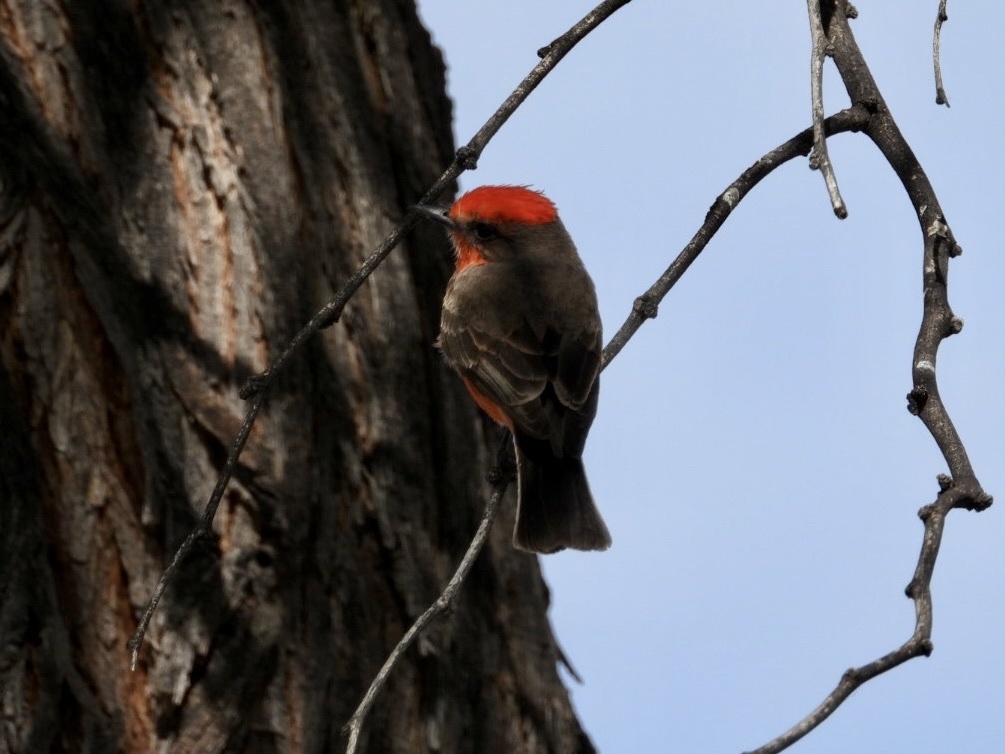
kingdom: Animalia
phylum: Chordata
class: Aves
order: Passeriformes
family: Tyrannidae
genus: Pyrocephalus
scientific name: Pyrocephalus rubinus
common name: Vermilion flycatcher
